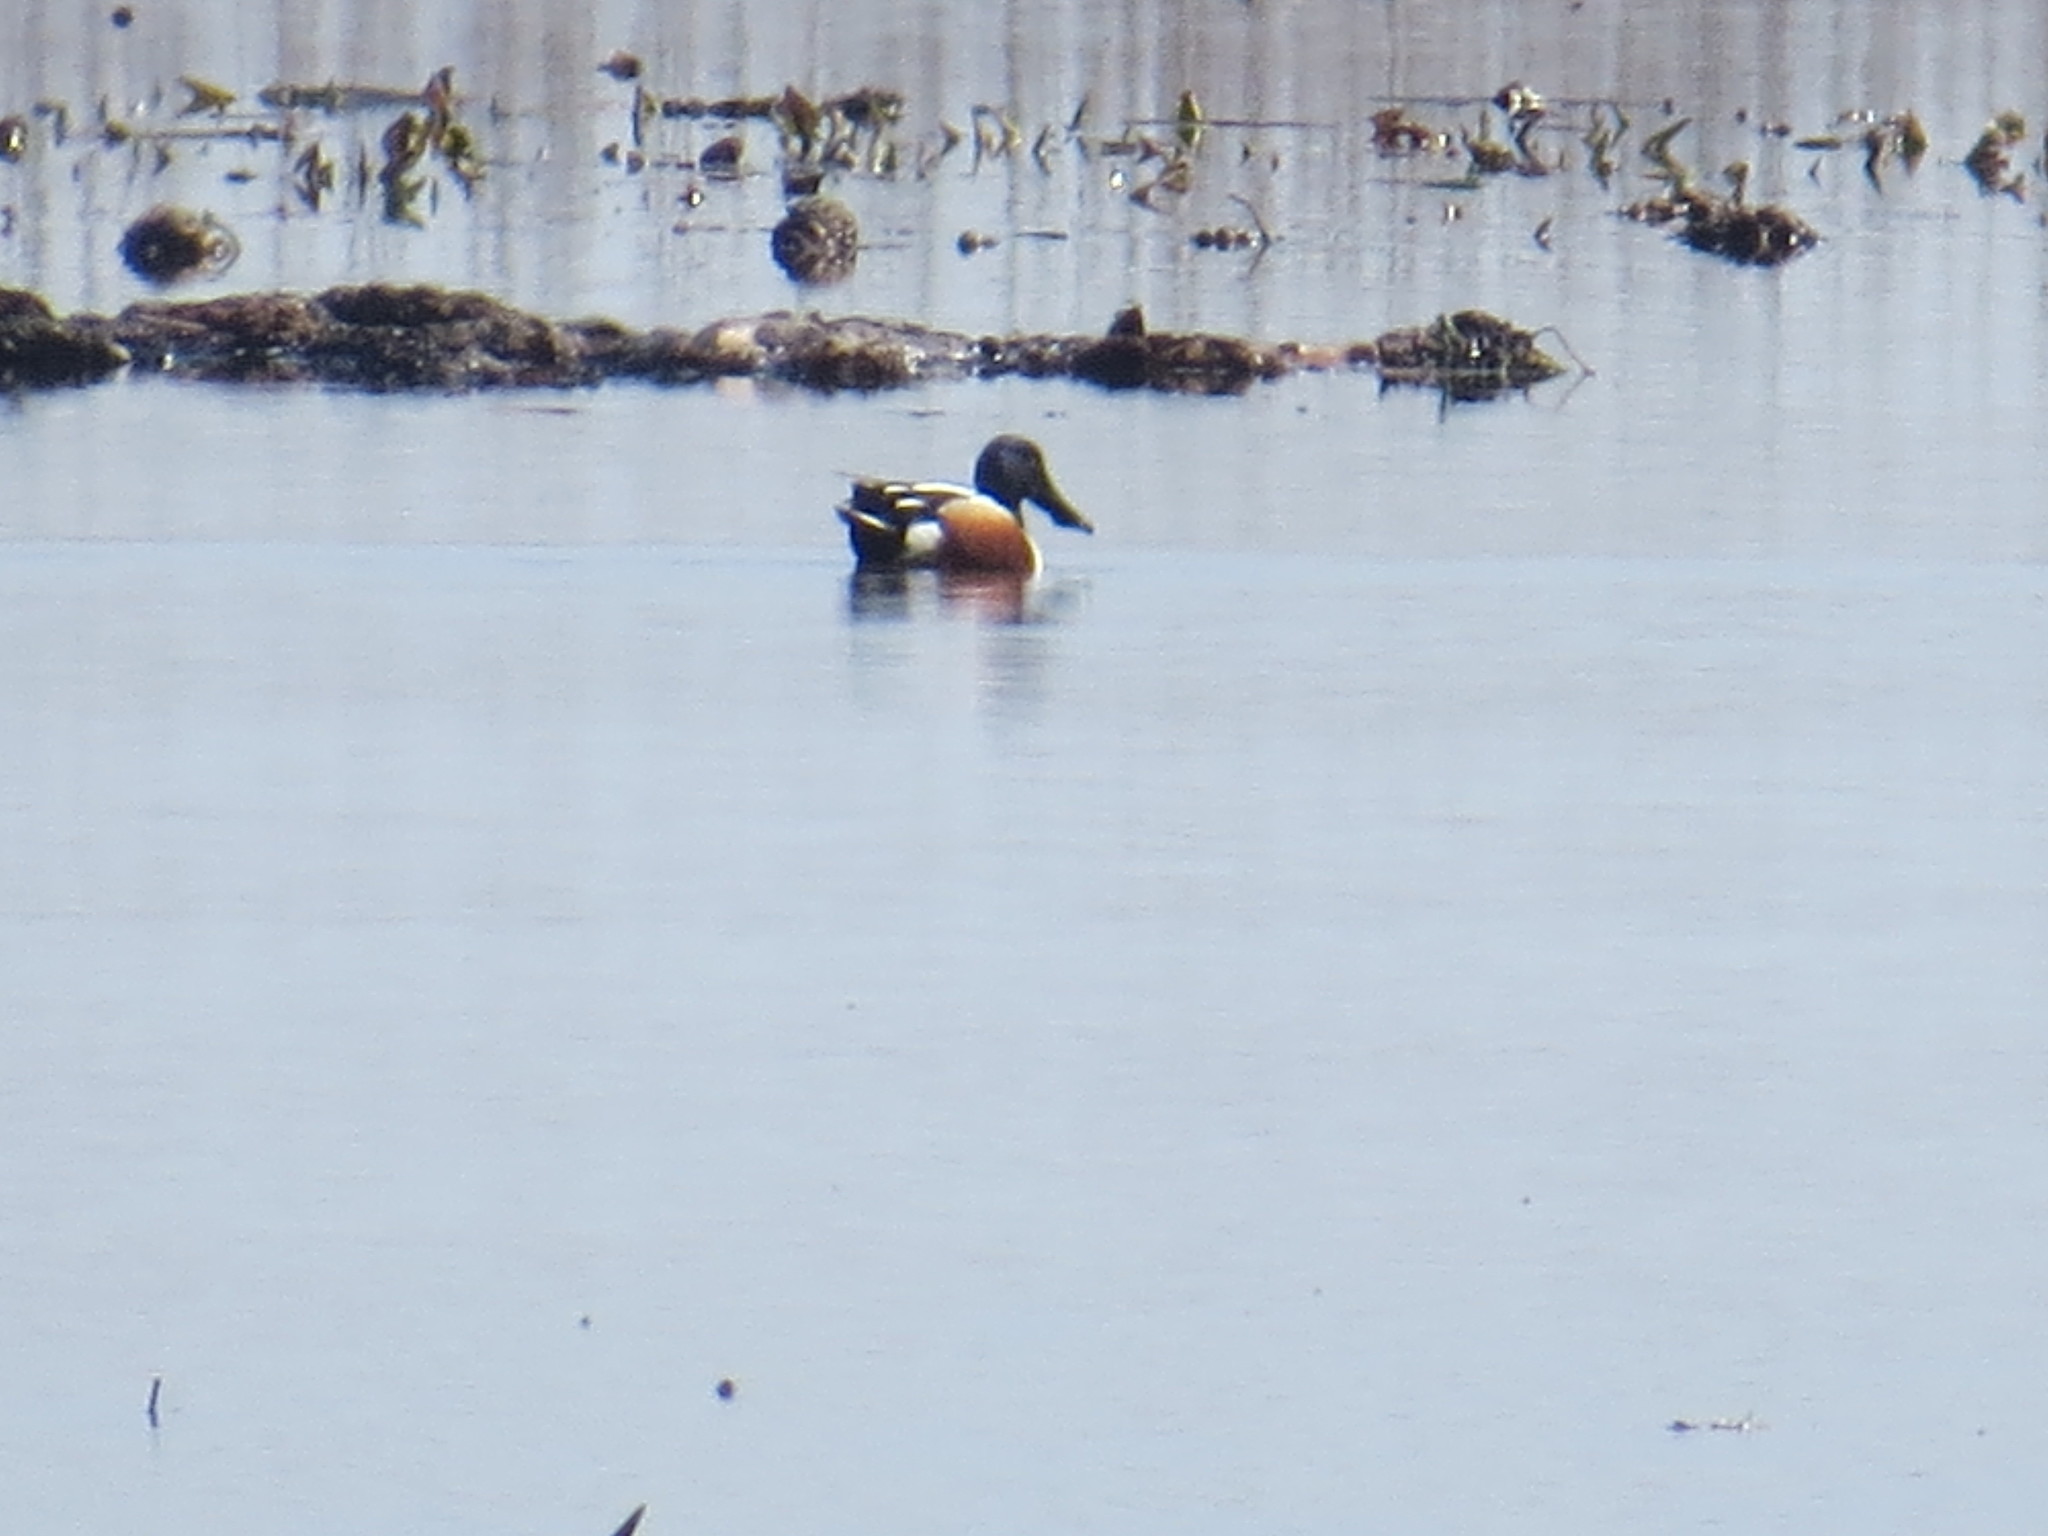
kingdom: Animalia
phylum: Chordata
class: Aves
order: Anseriformes
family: Anatidae
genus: Spatula
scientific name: Spatula clypeata
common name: Northern shoveler
